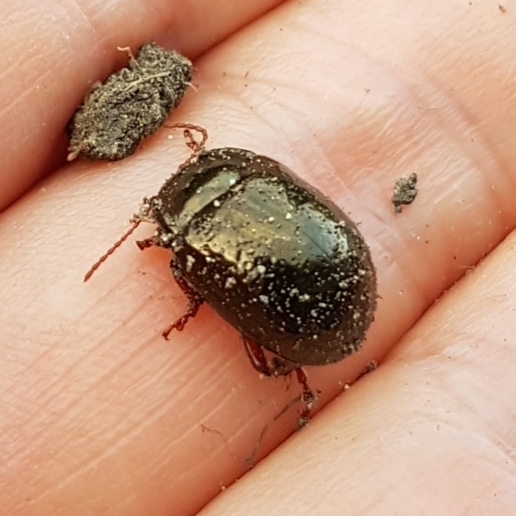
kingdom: Animalia
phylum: Arthropoda
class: Insecta
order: Coleoptera
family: Chrysomelidae
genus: Chrysolina
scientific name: Chrysolina bankii
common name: Leaf beetle
